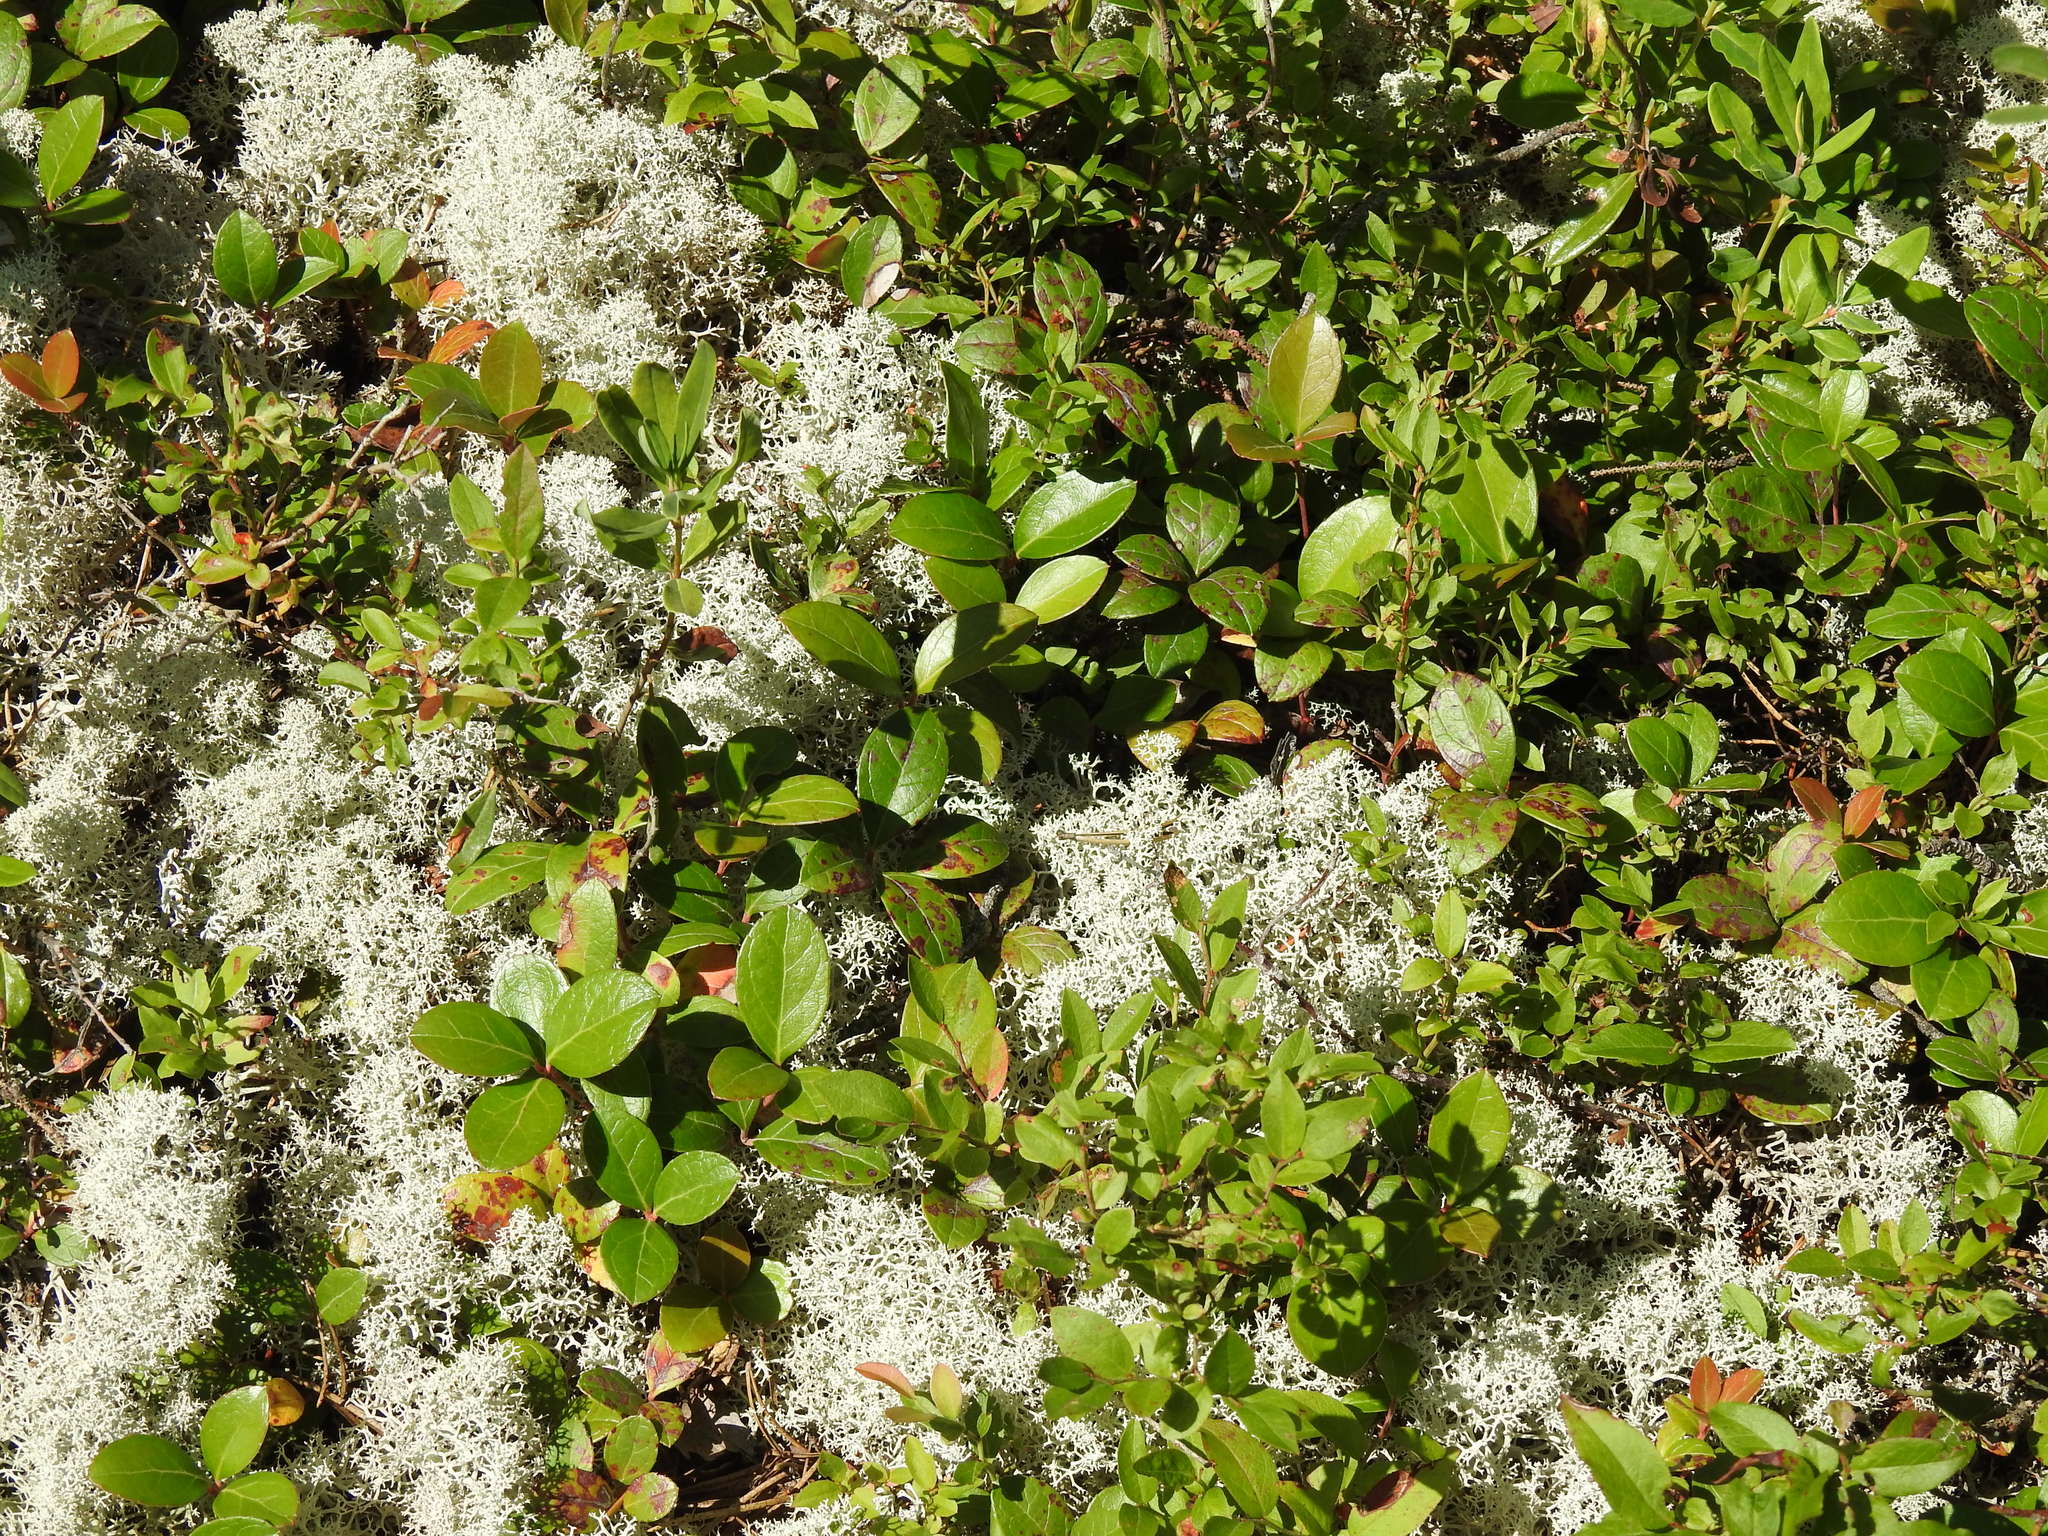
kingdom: Plantae
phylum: Tracheophyta
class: Magnoliopsida
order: Ericales
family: Ericaceae
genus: Gaultheria
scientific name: Gaultheria procumbens
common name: Checkerberry
